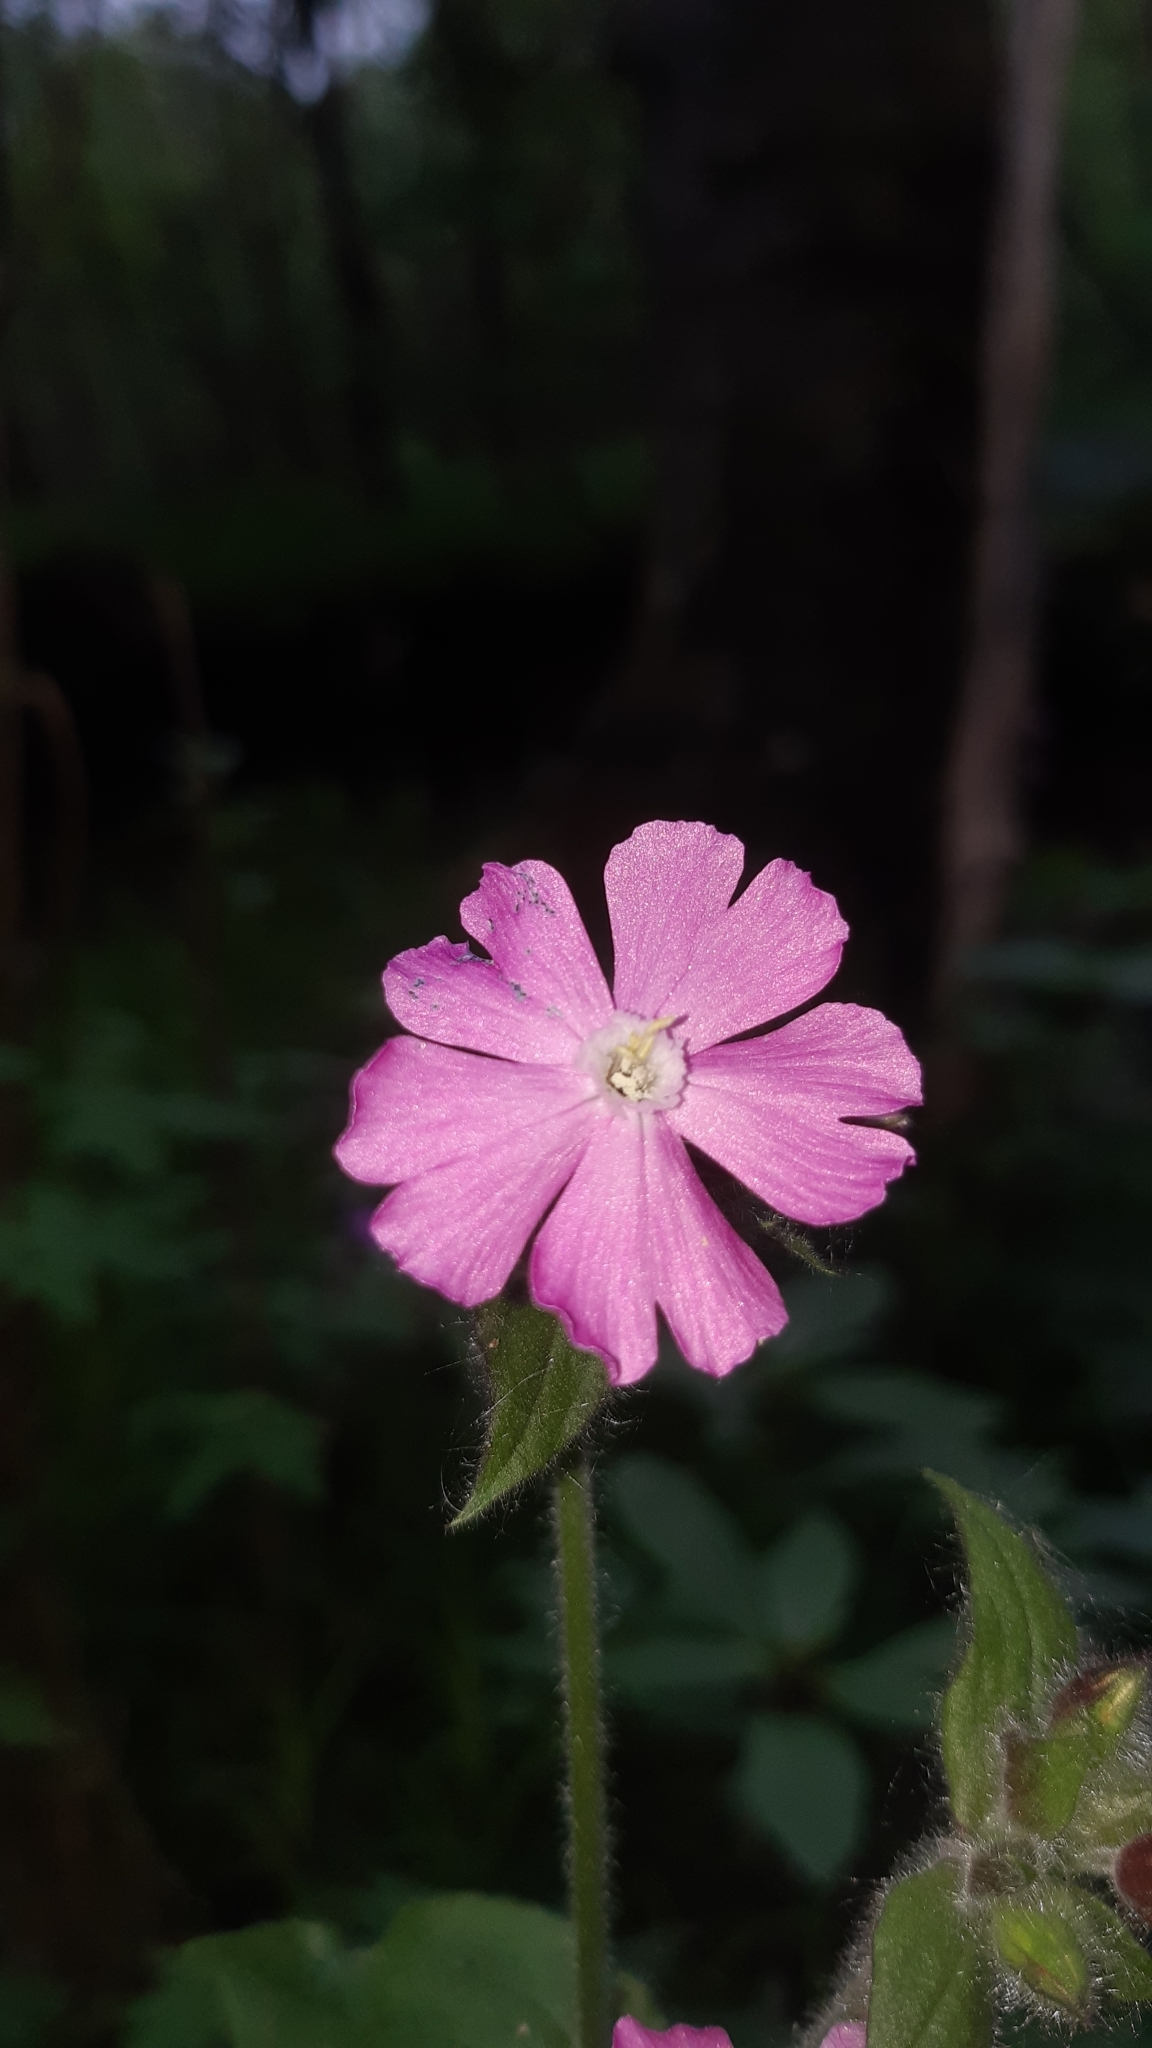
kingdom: Plantae
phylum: Tracheophyta
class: Magnoliopsida
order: Caryophyllales
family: Caryophyllaceae
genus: Silene
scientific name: Silene dioica
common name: Red campion
